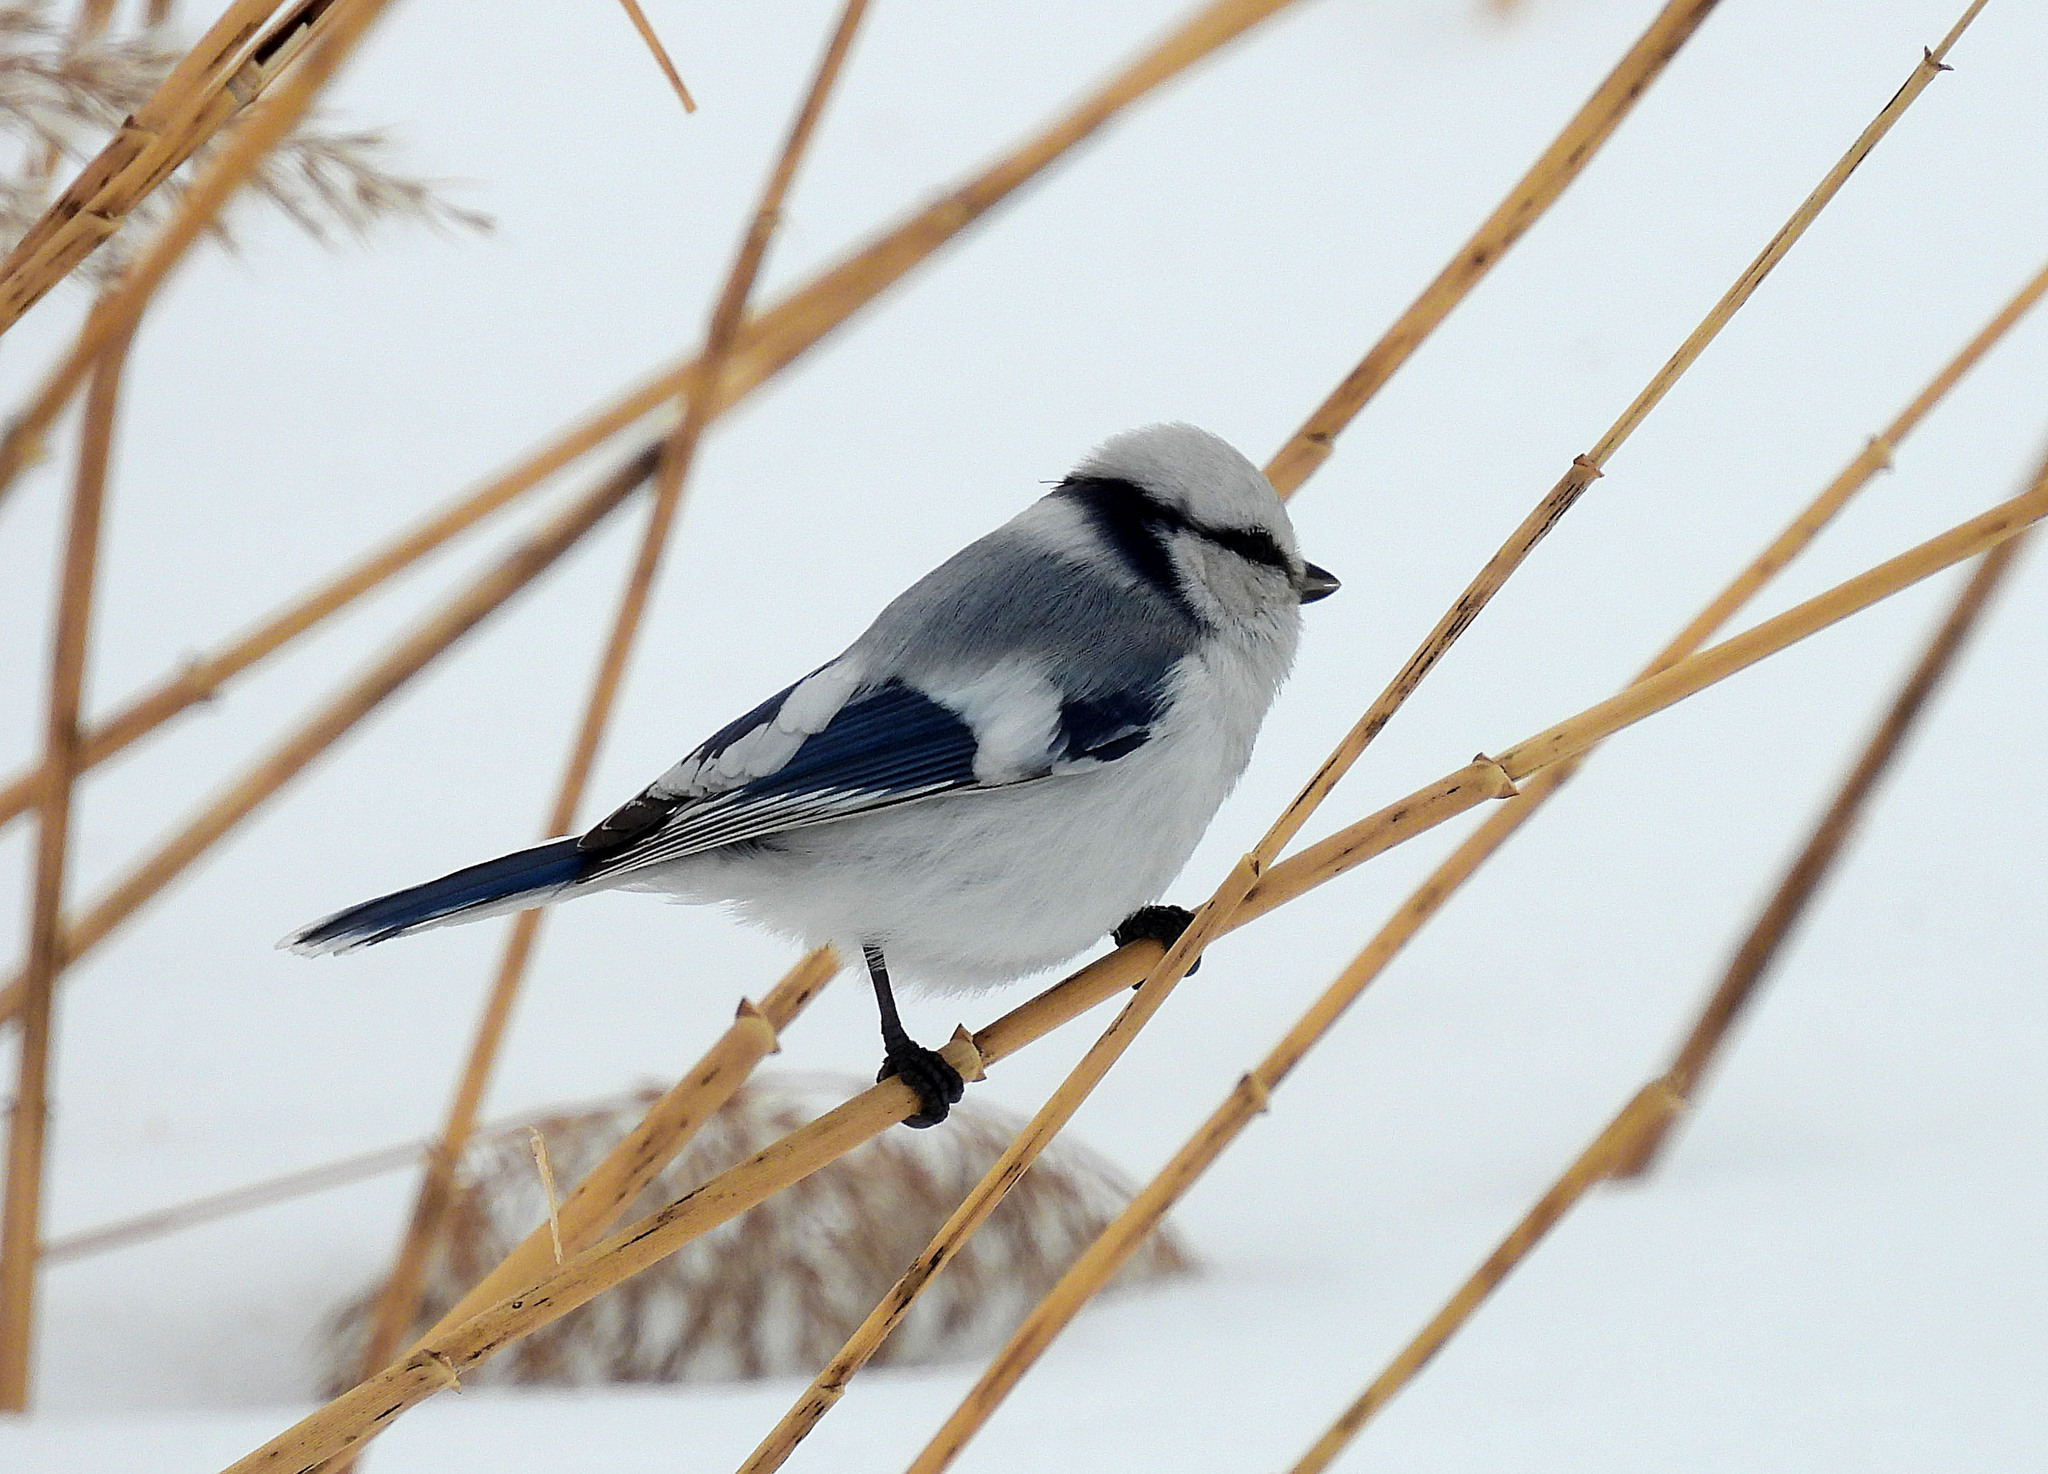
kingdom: Animalia
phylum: Chordata
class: Aves
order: Passeriformes
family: Paridae
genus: Cyanistes
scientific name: Cyanistes cyanus
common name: Azure tit
